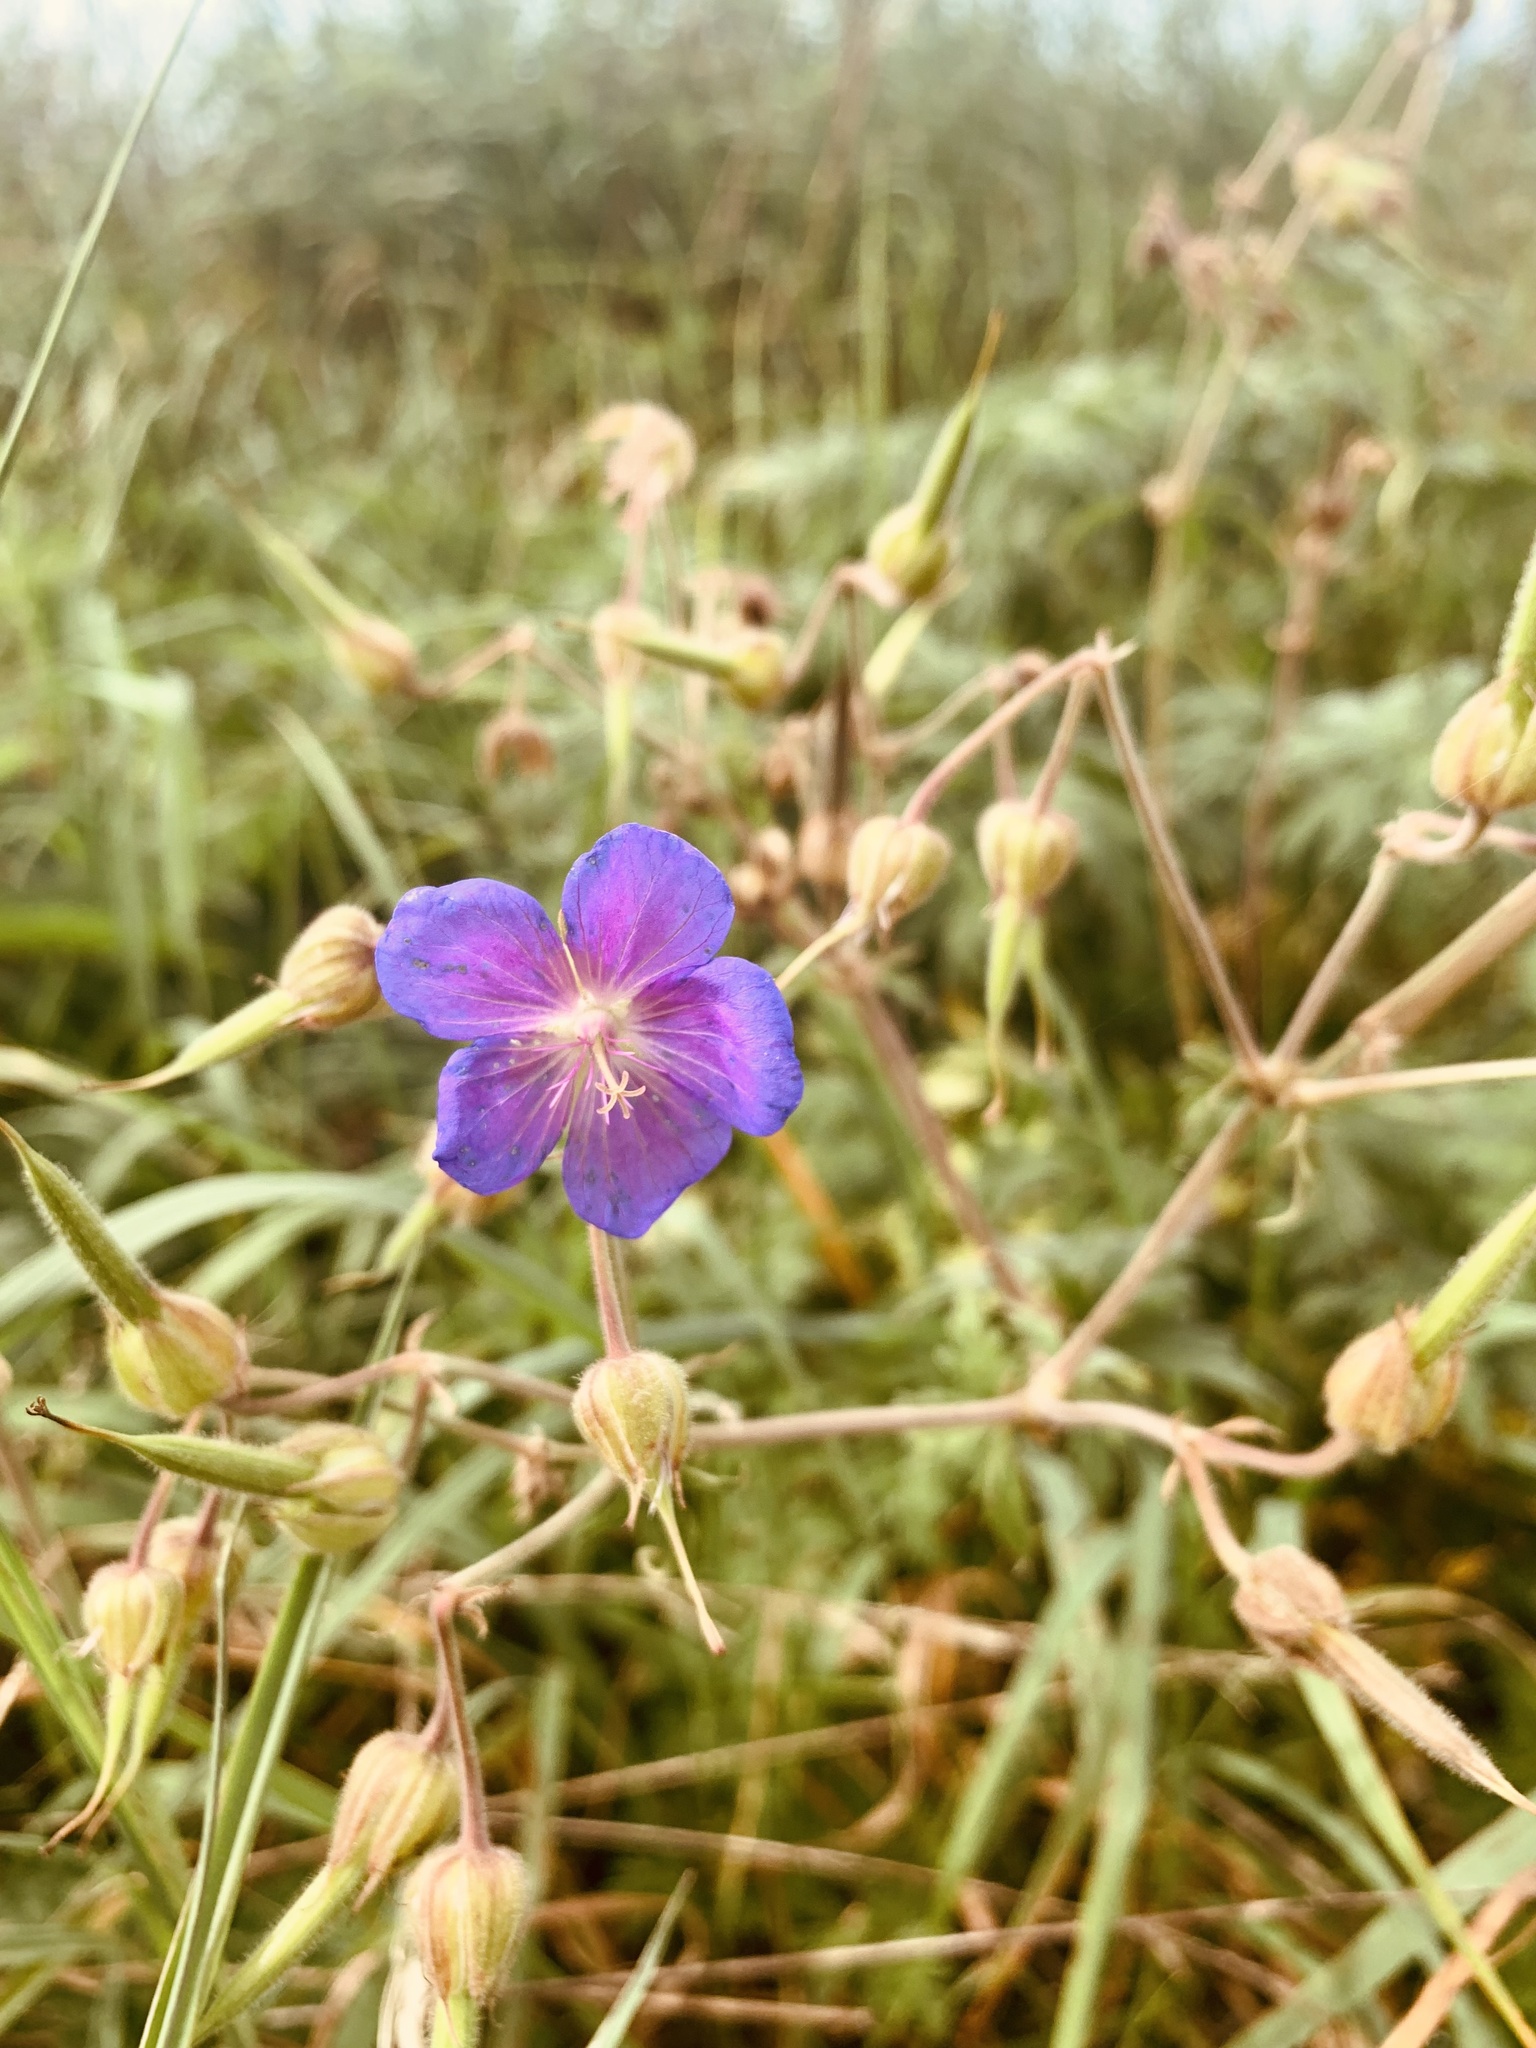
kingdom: Plantae
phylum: Tracheophyta
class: Magnoliopsida
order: Geraniales
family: Geraniaceae
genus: Geranium
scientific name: Geranium pratense
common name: Meadow crane's-bill
